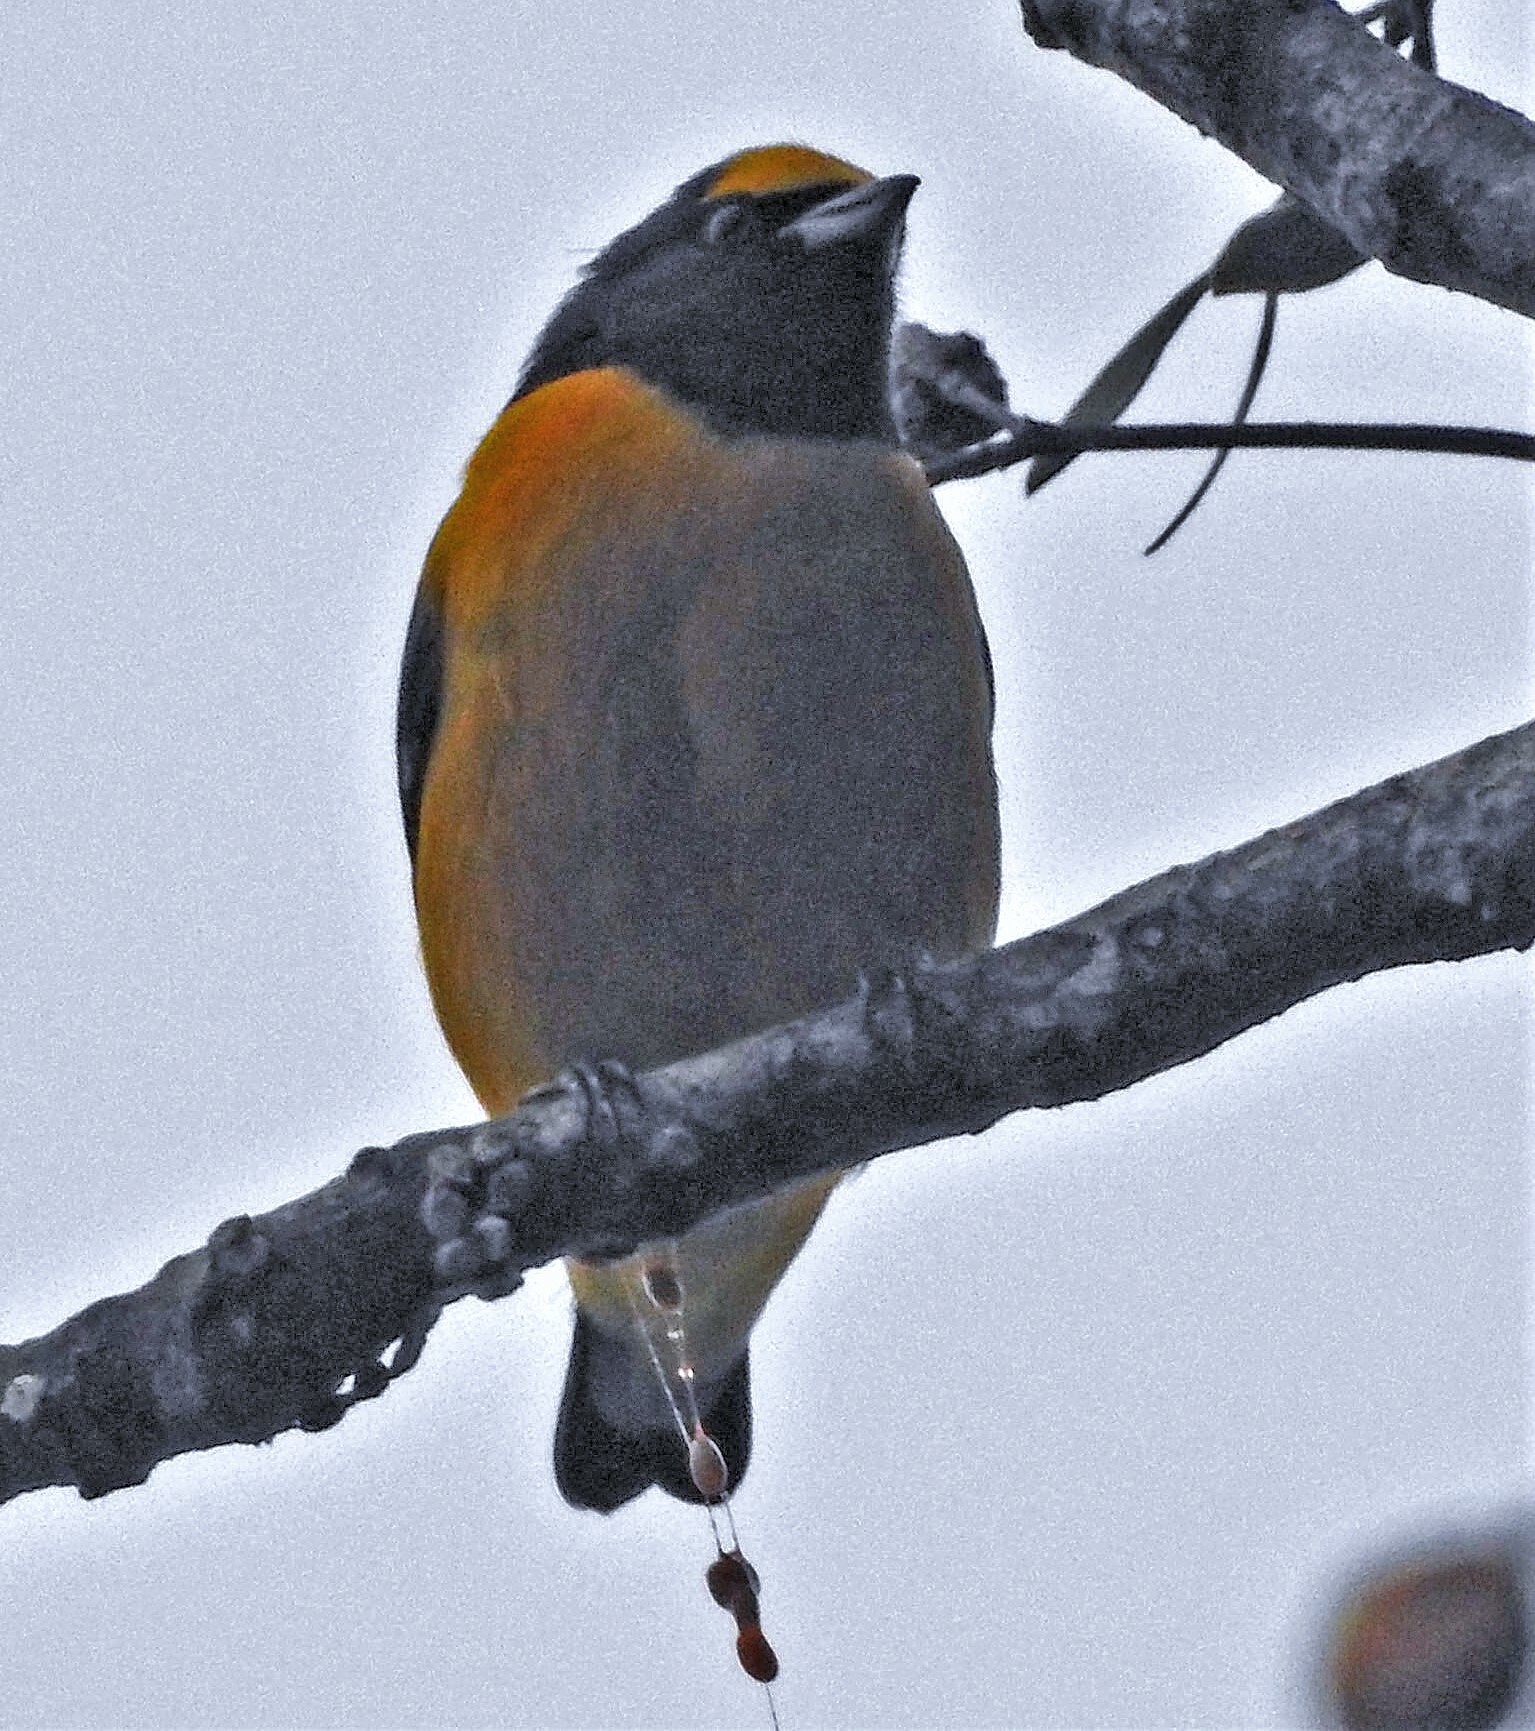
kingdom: Animalia
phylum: Chordata
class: Aves
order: Passeriformes
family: Fringillidae
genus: Euphonia
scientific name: Euphonia chlorotica
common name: Purple-throated euphonia
